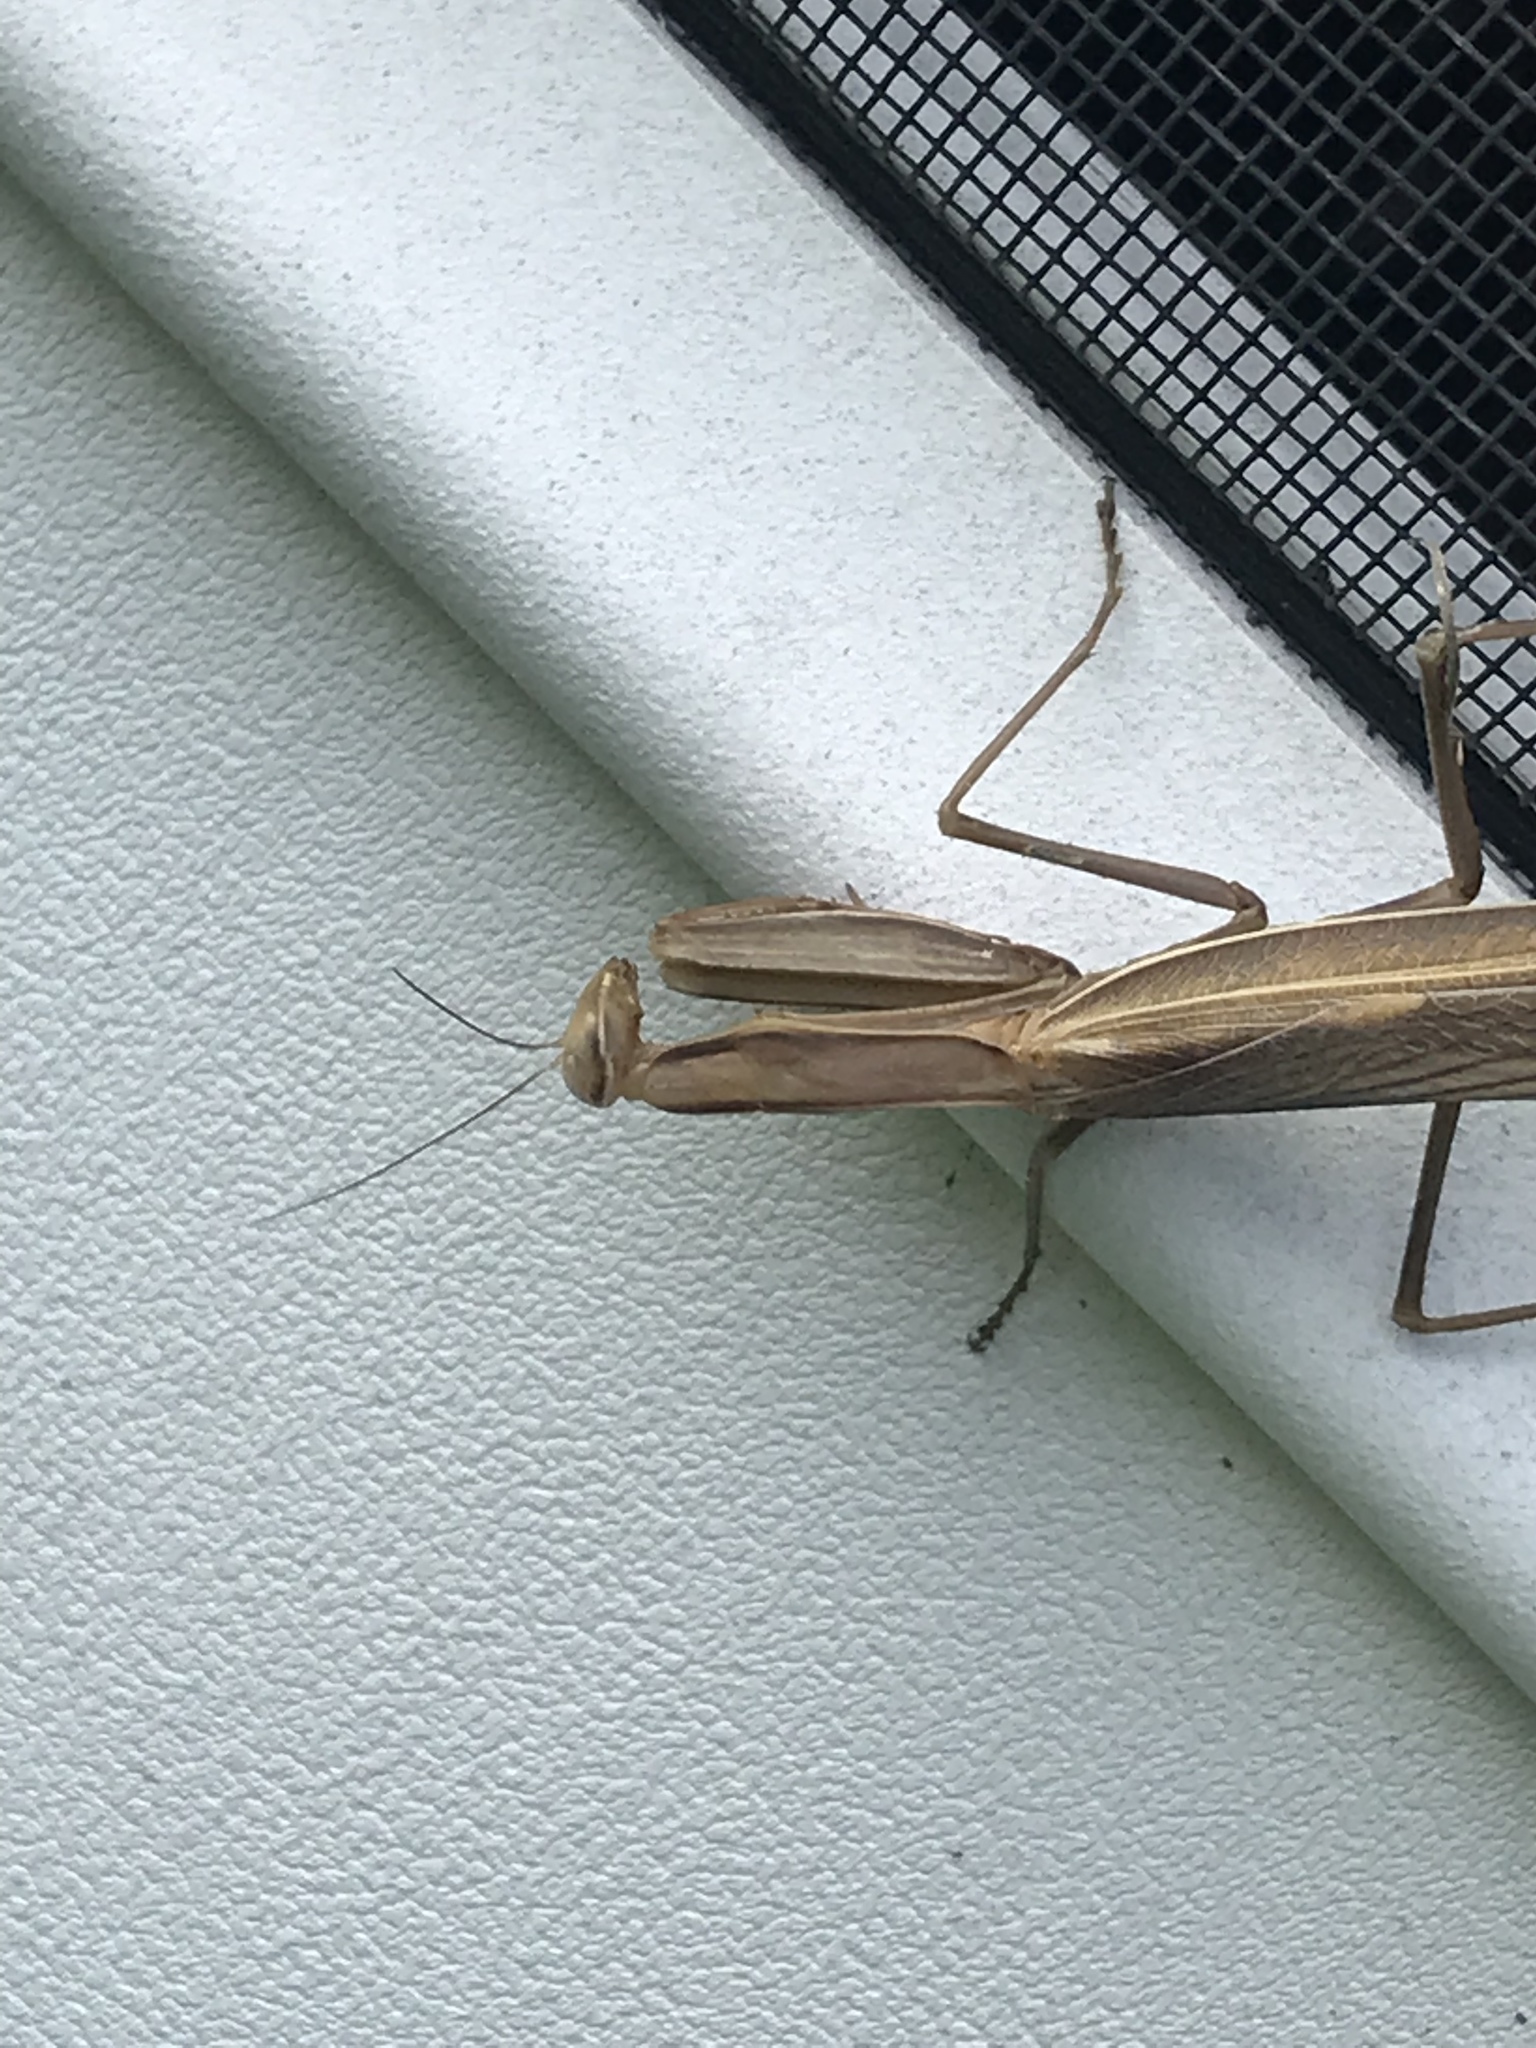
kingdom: Animalia
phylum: Arthropoda
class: Insecta
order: Mantodea
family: Mantidae
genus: Mantis
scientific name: Mantis religiosa
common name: Praying mantis
